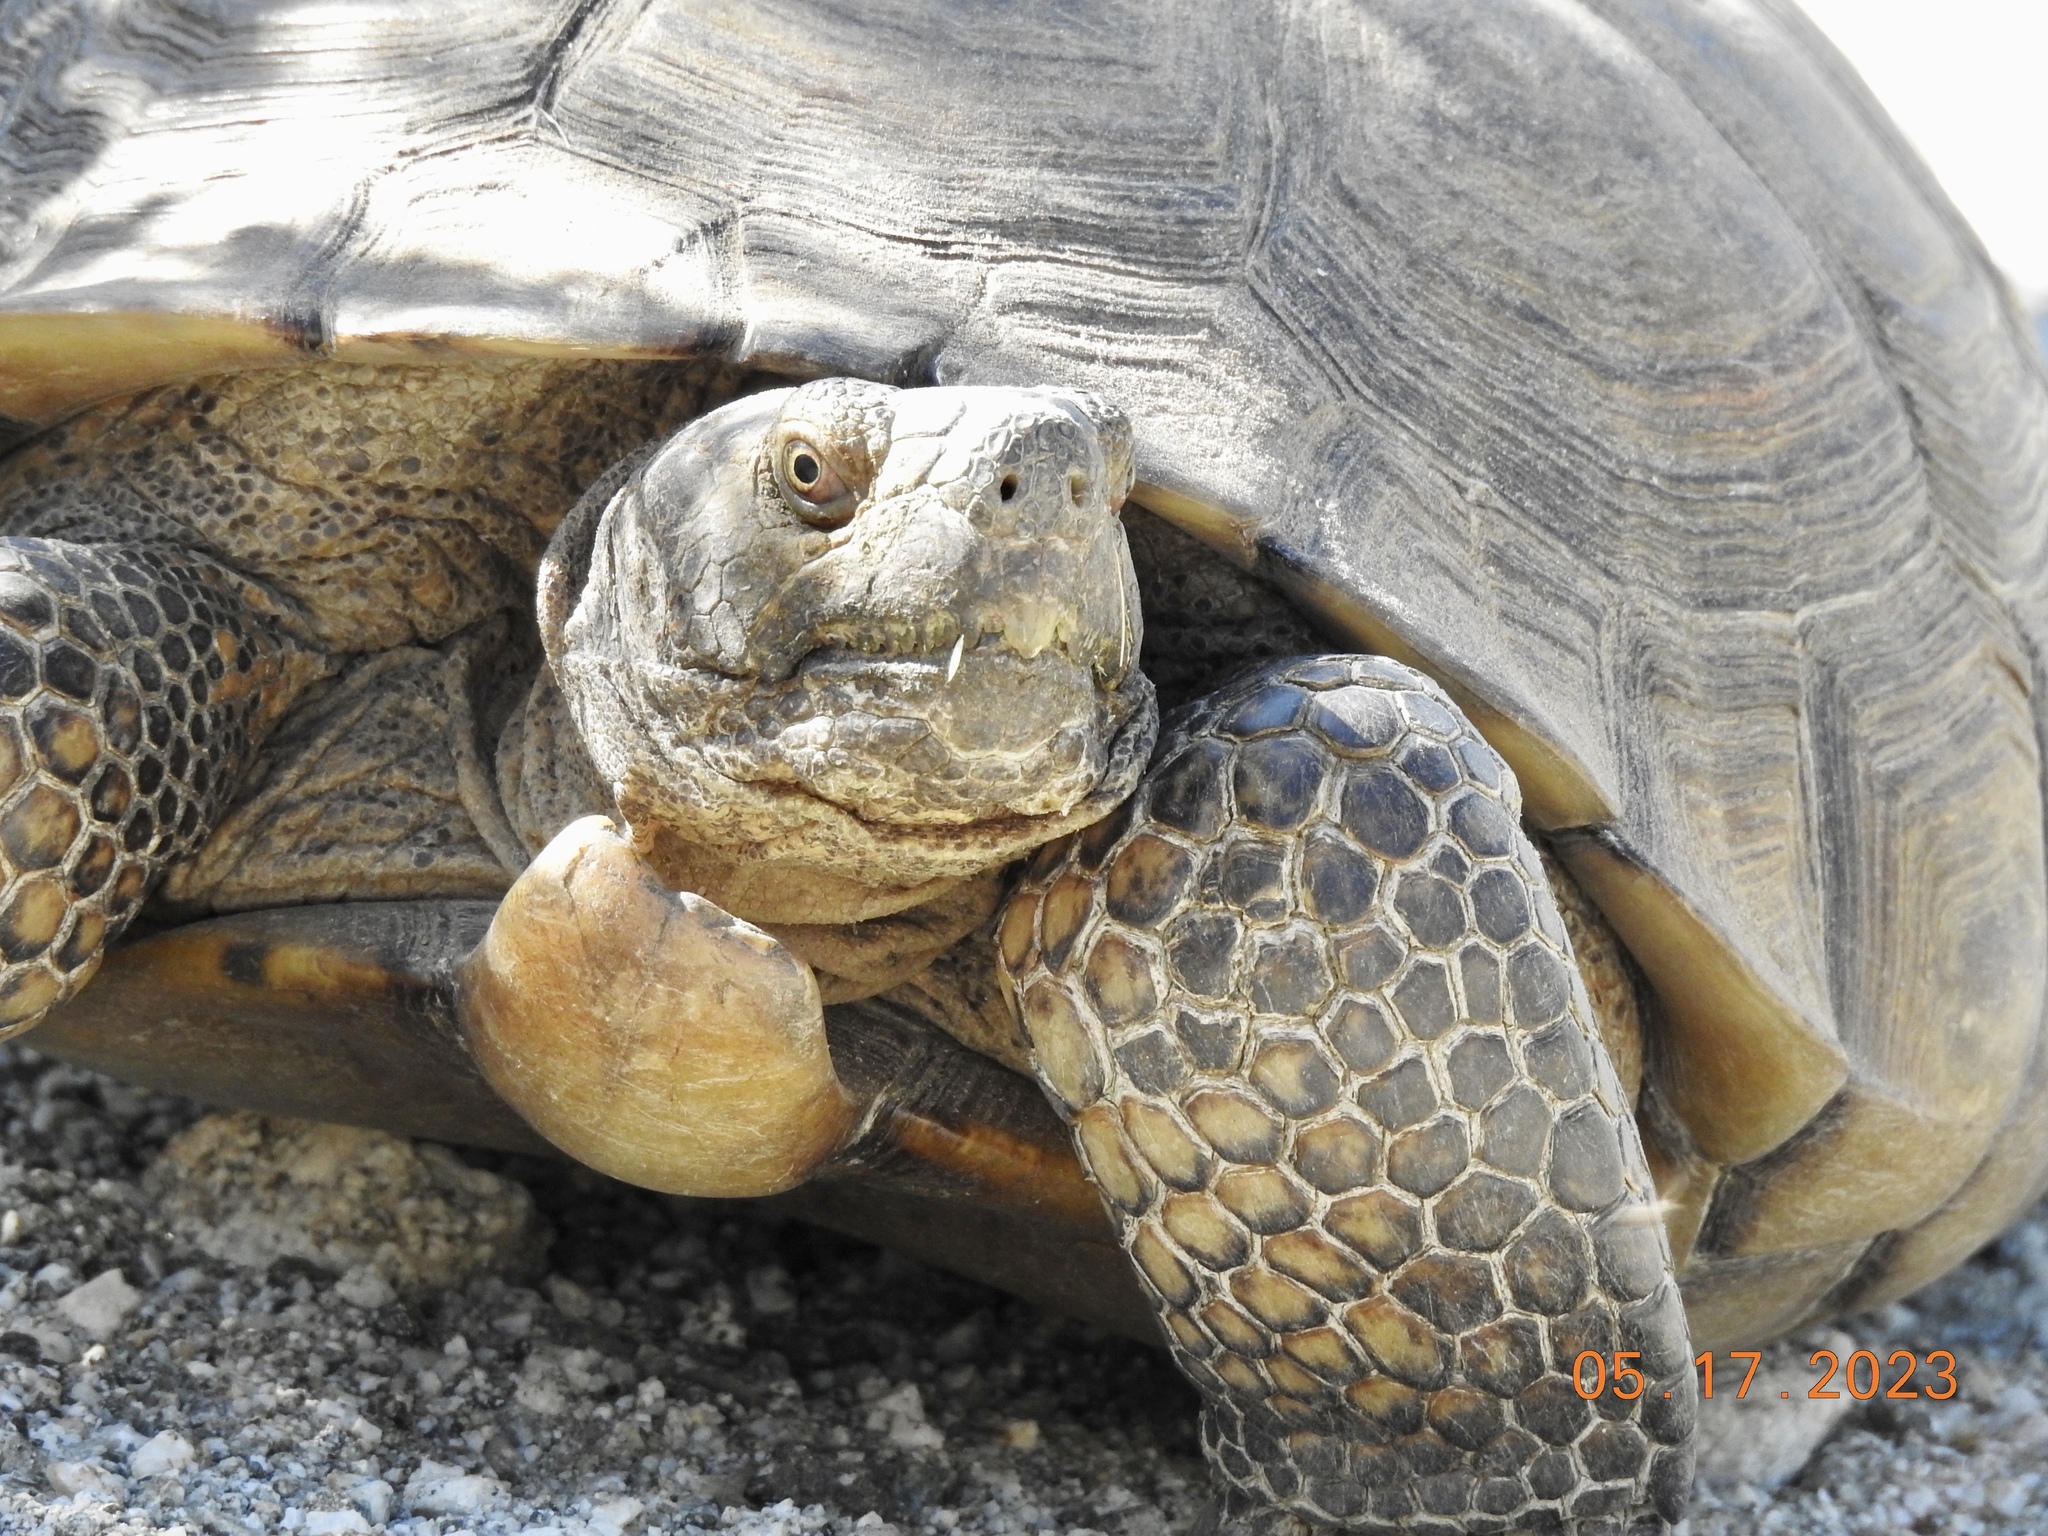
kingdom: Animalia
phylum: Chordata
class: Testudines
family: Testudinidae
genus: Gopherus
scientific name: Gopherus agassizii
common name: Mojave desert tortoise
